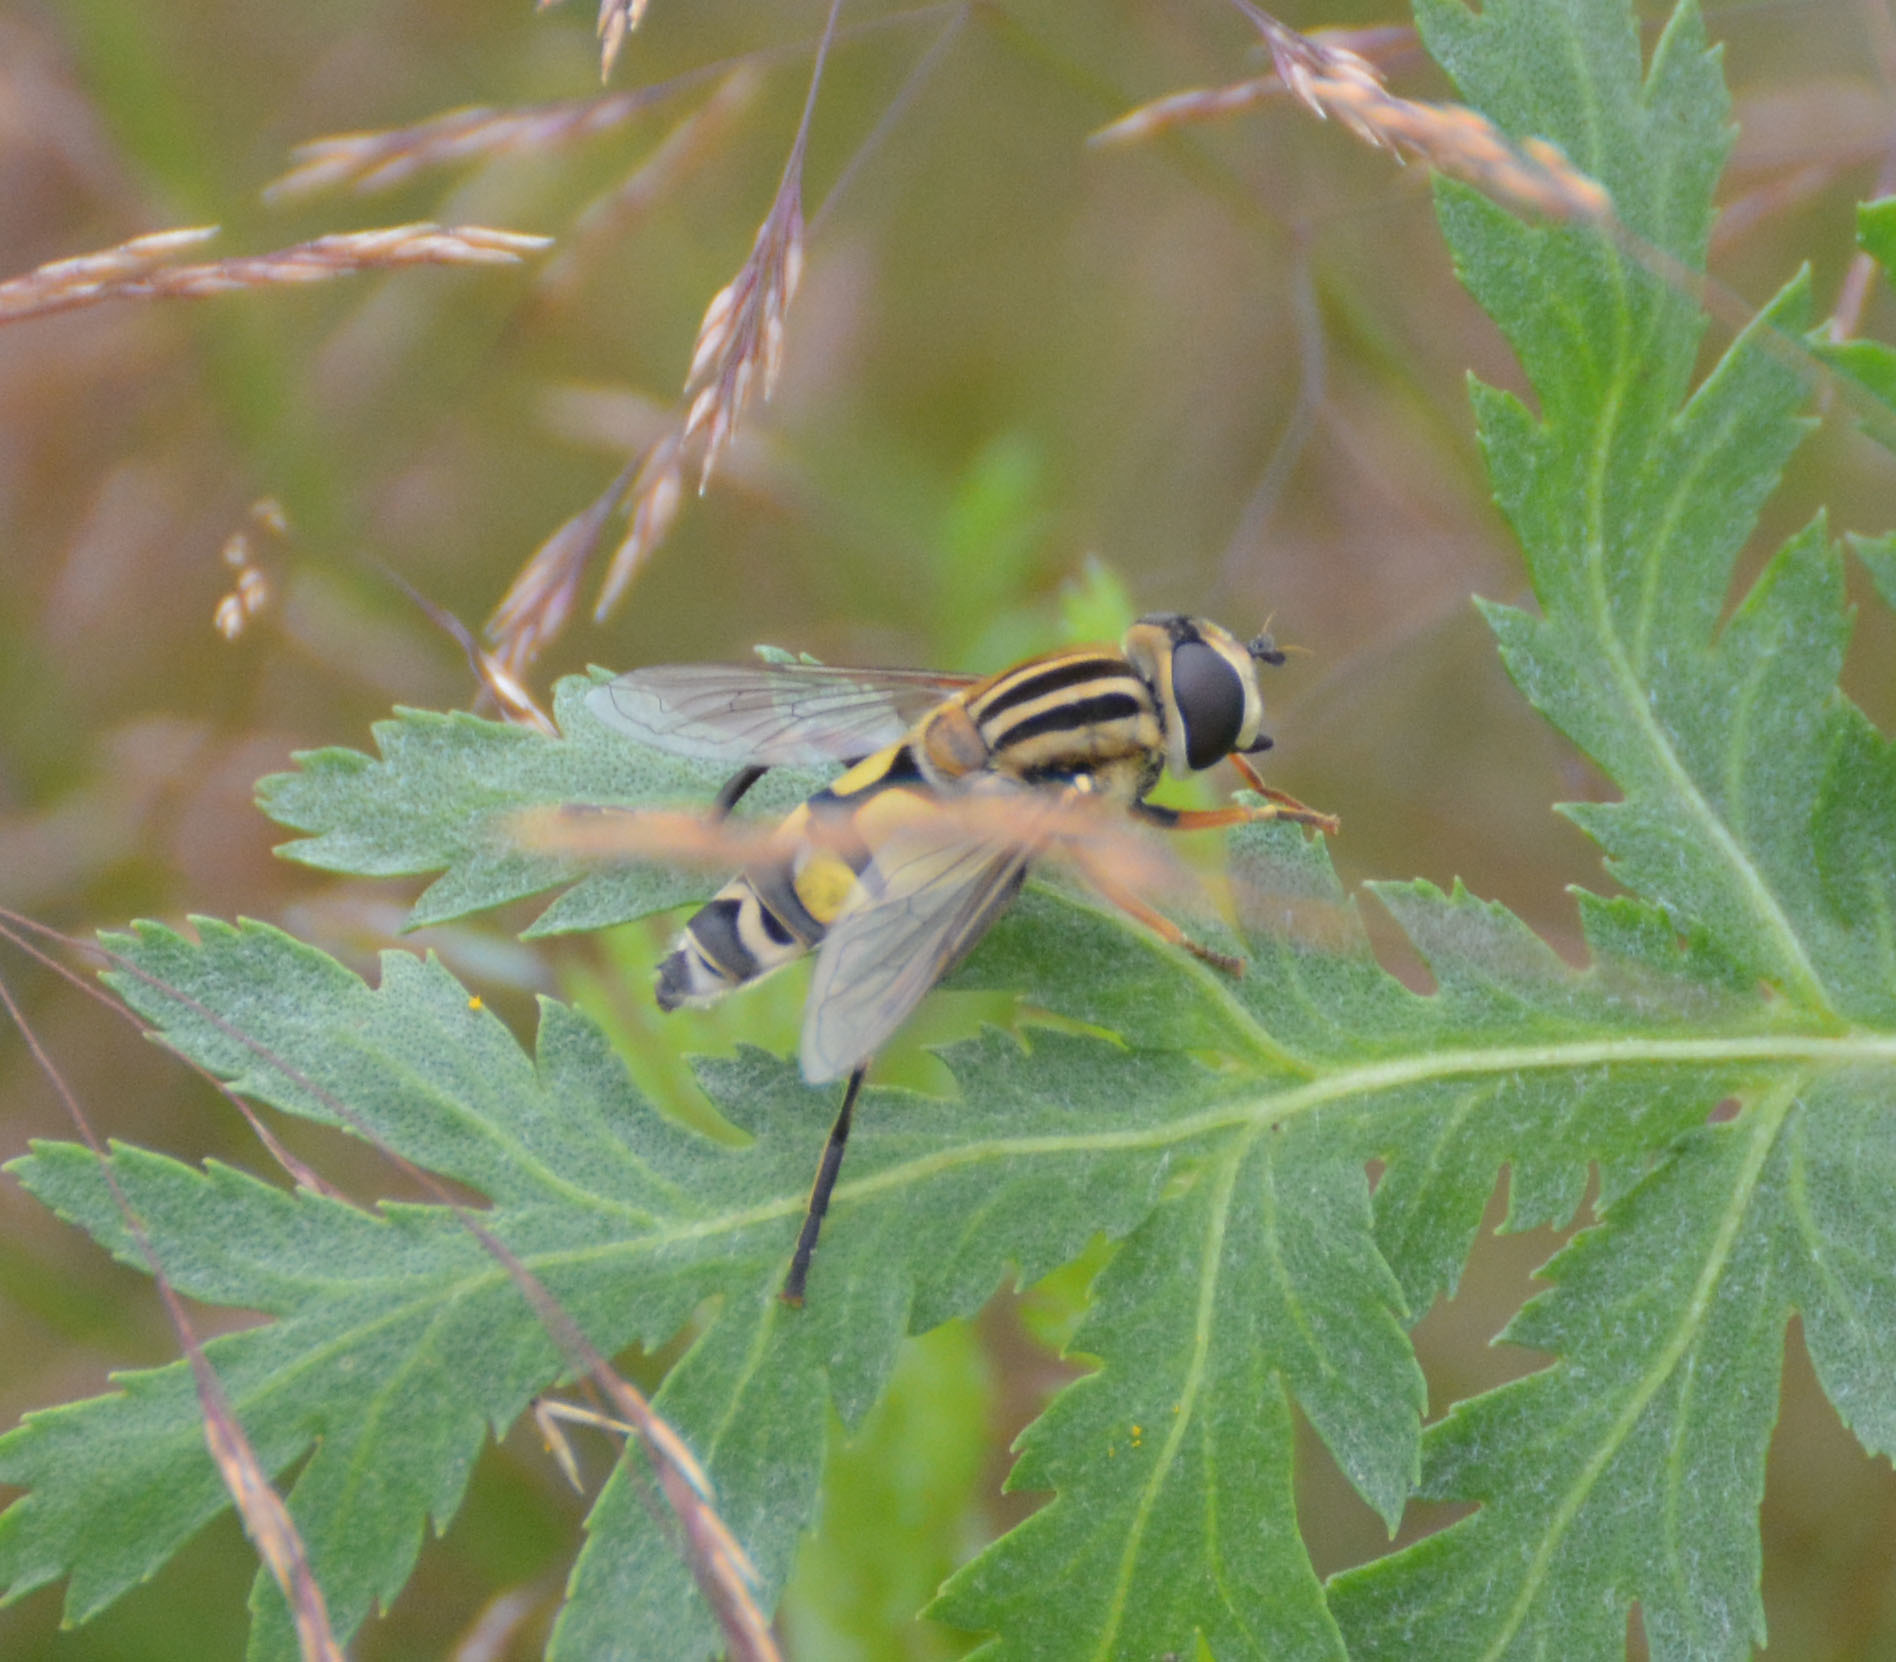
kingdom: Animalia
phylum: Arthropoda
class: Insecta
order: Diptera
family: Syrphidae
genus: Helophilus
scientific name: Helophilus trivittatus
